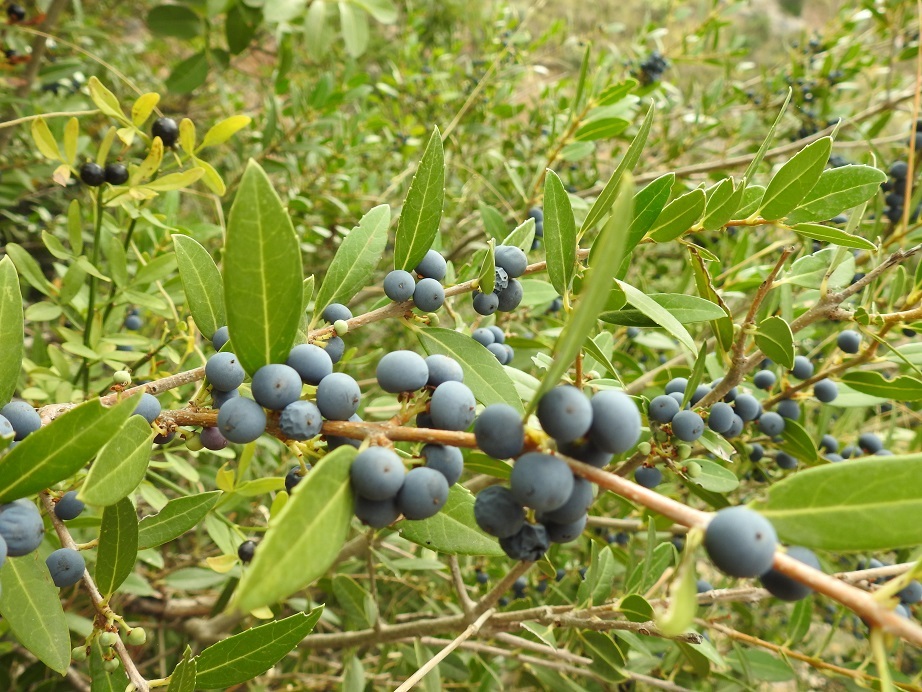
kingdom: Plantae
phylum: Tracheophyta
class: Magnoliopsida
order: Myrtales
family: Myrtaceae
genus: Myrtus
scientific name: Myrtus communis
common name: Myrtle
